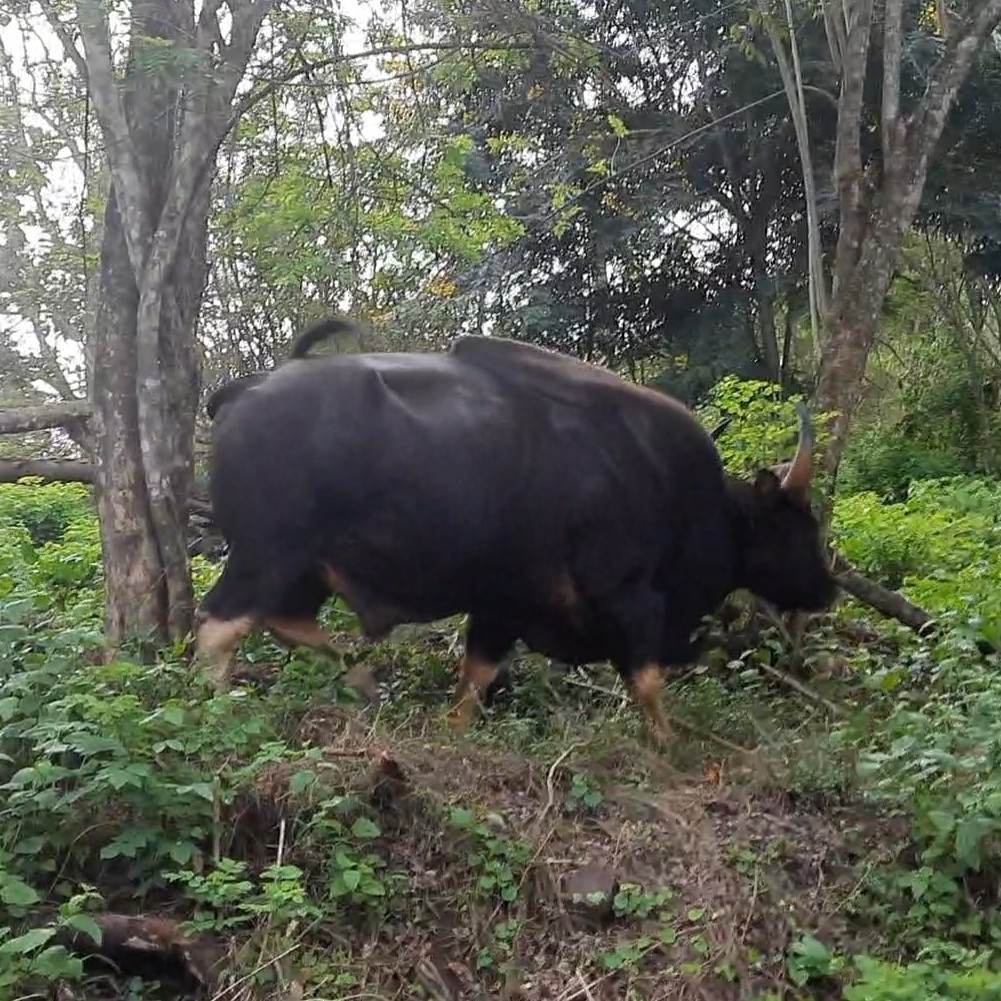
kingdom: Animalia
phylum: Chordata
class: Mammalia
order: Artiodactyla
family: Bovidae
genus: Bos
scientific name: Bos frontalis
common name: Gaur
